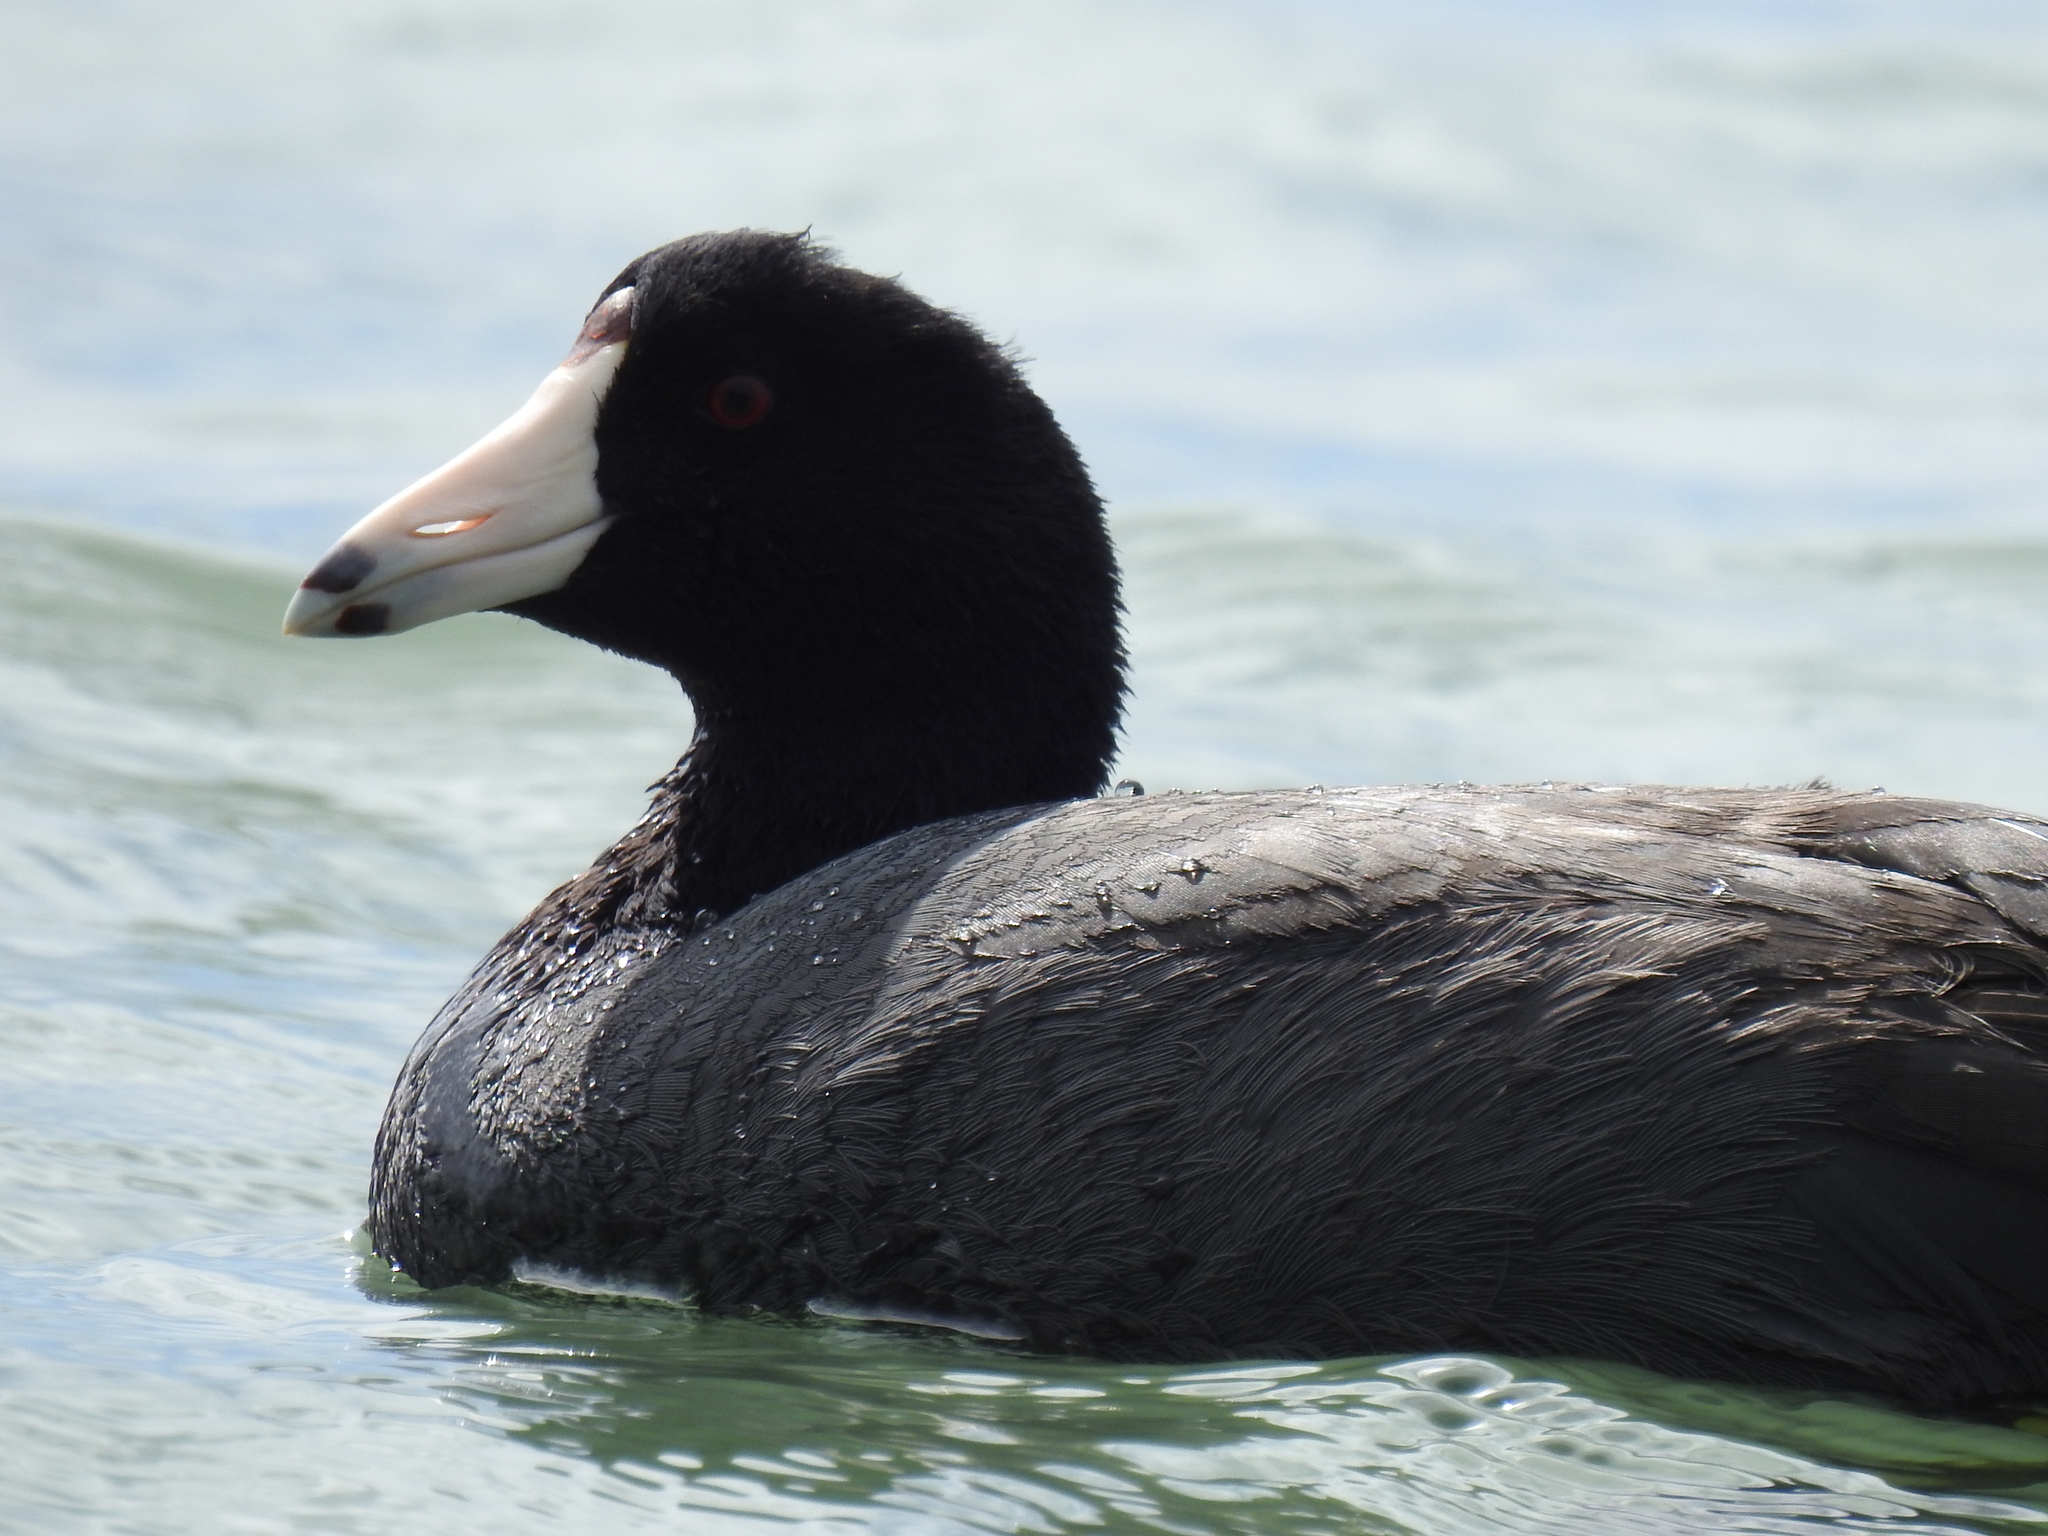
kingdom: Animalia
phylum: Chordata
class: Aves
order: Gruiformes
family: Rallidae
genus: Fulica
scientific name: Fulica americana
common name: American coot
